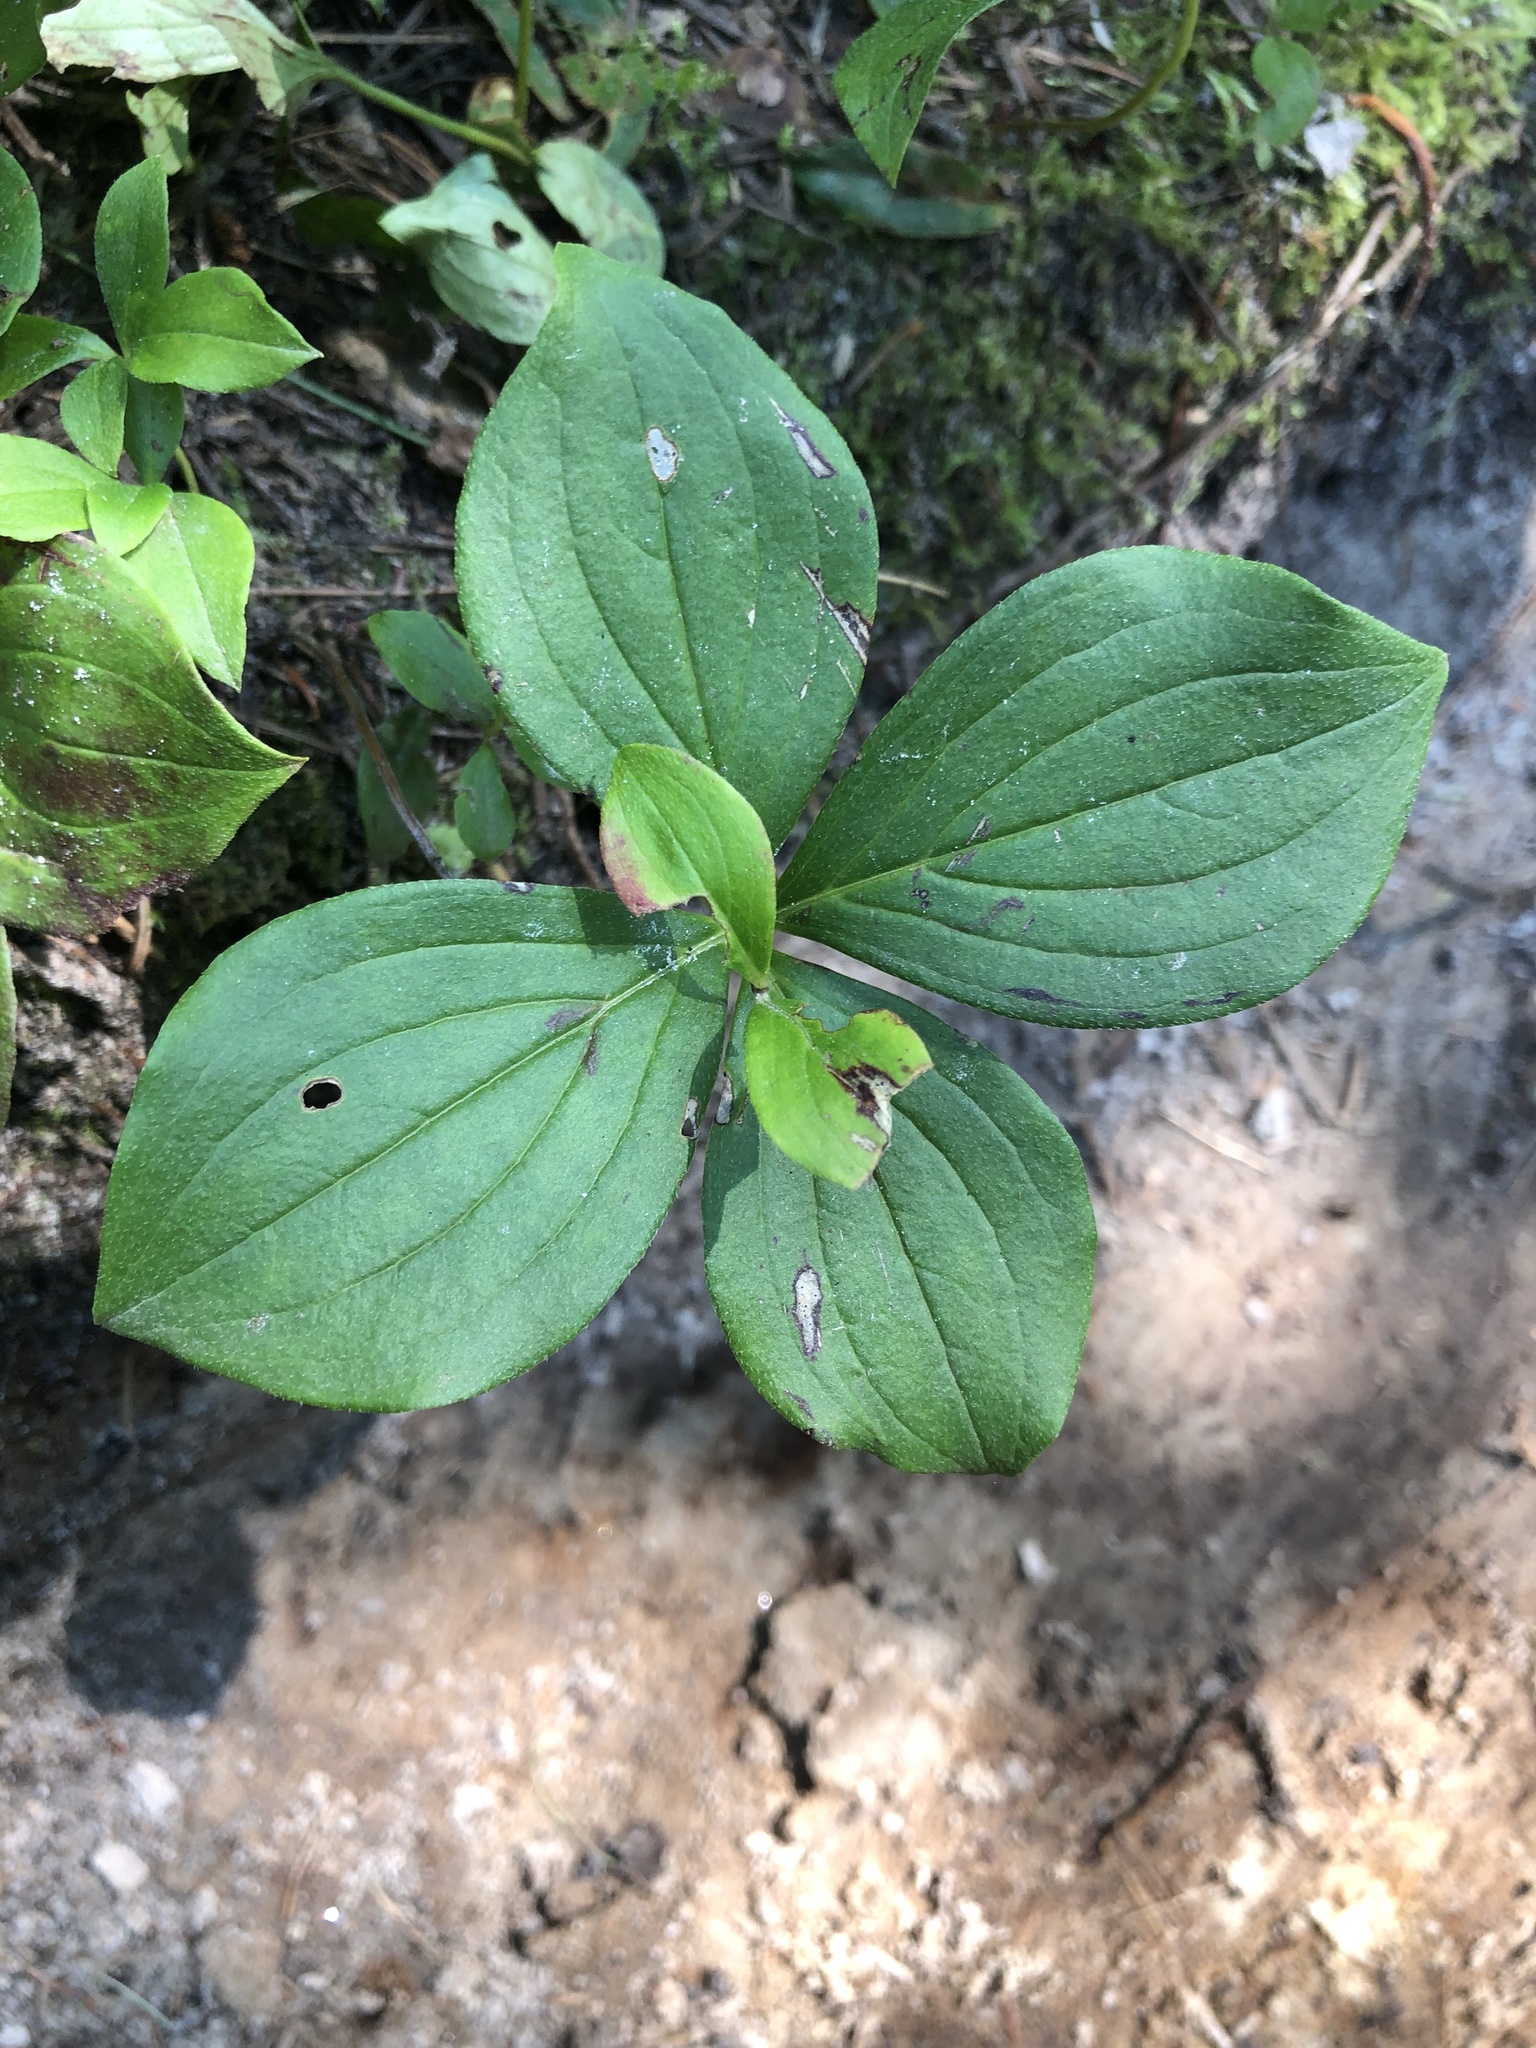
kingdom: Plantae
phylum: Tracheophyta
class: Magnoliopsida
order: Cornales
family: Cornaceae
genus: Cornus
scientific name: Cornus canadensis
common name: Creeping dogwood
